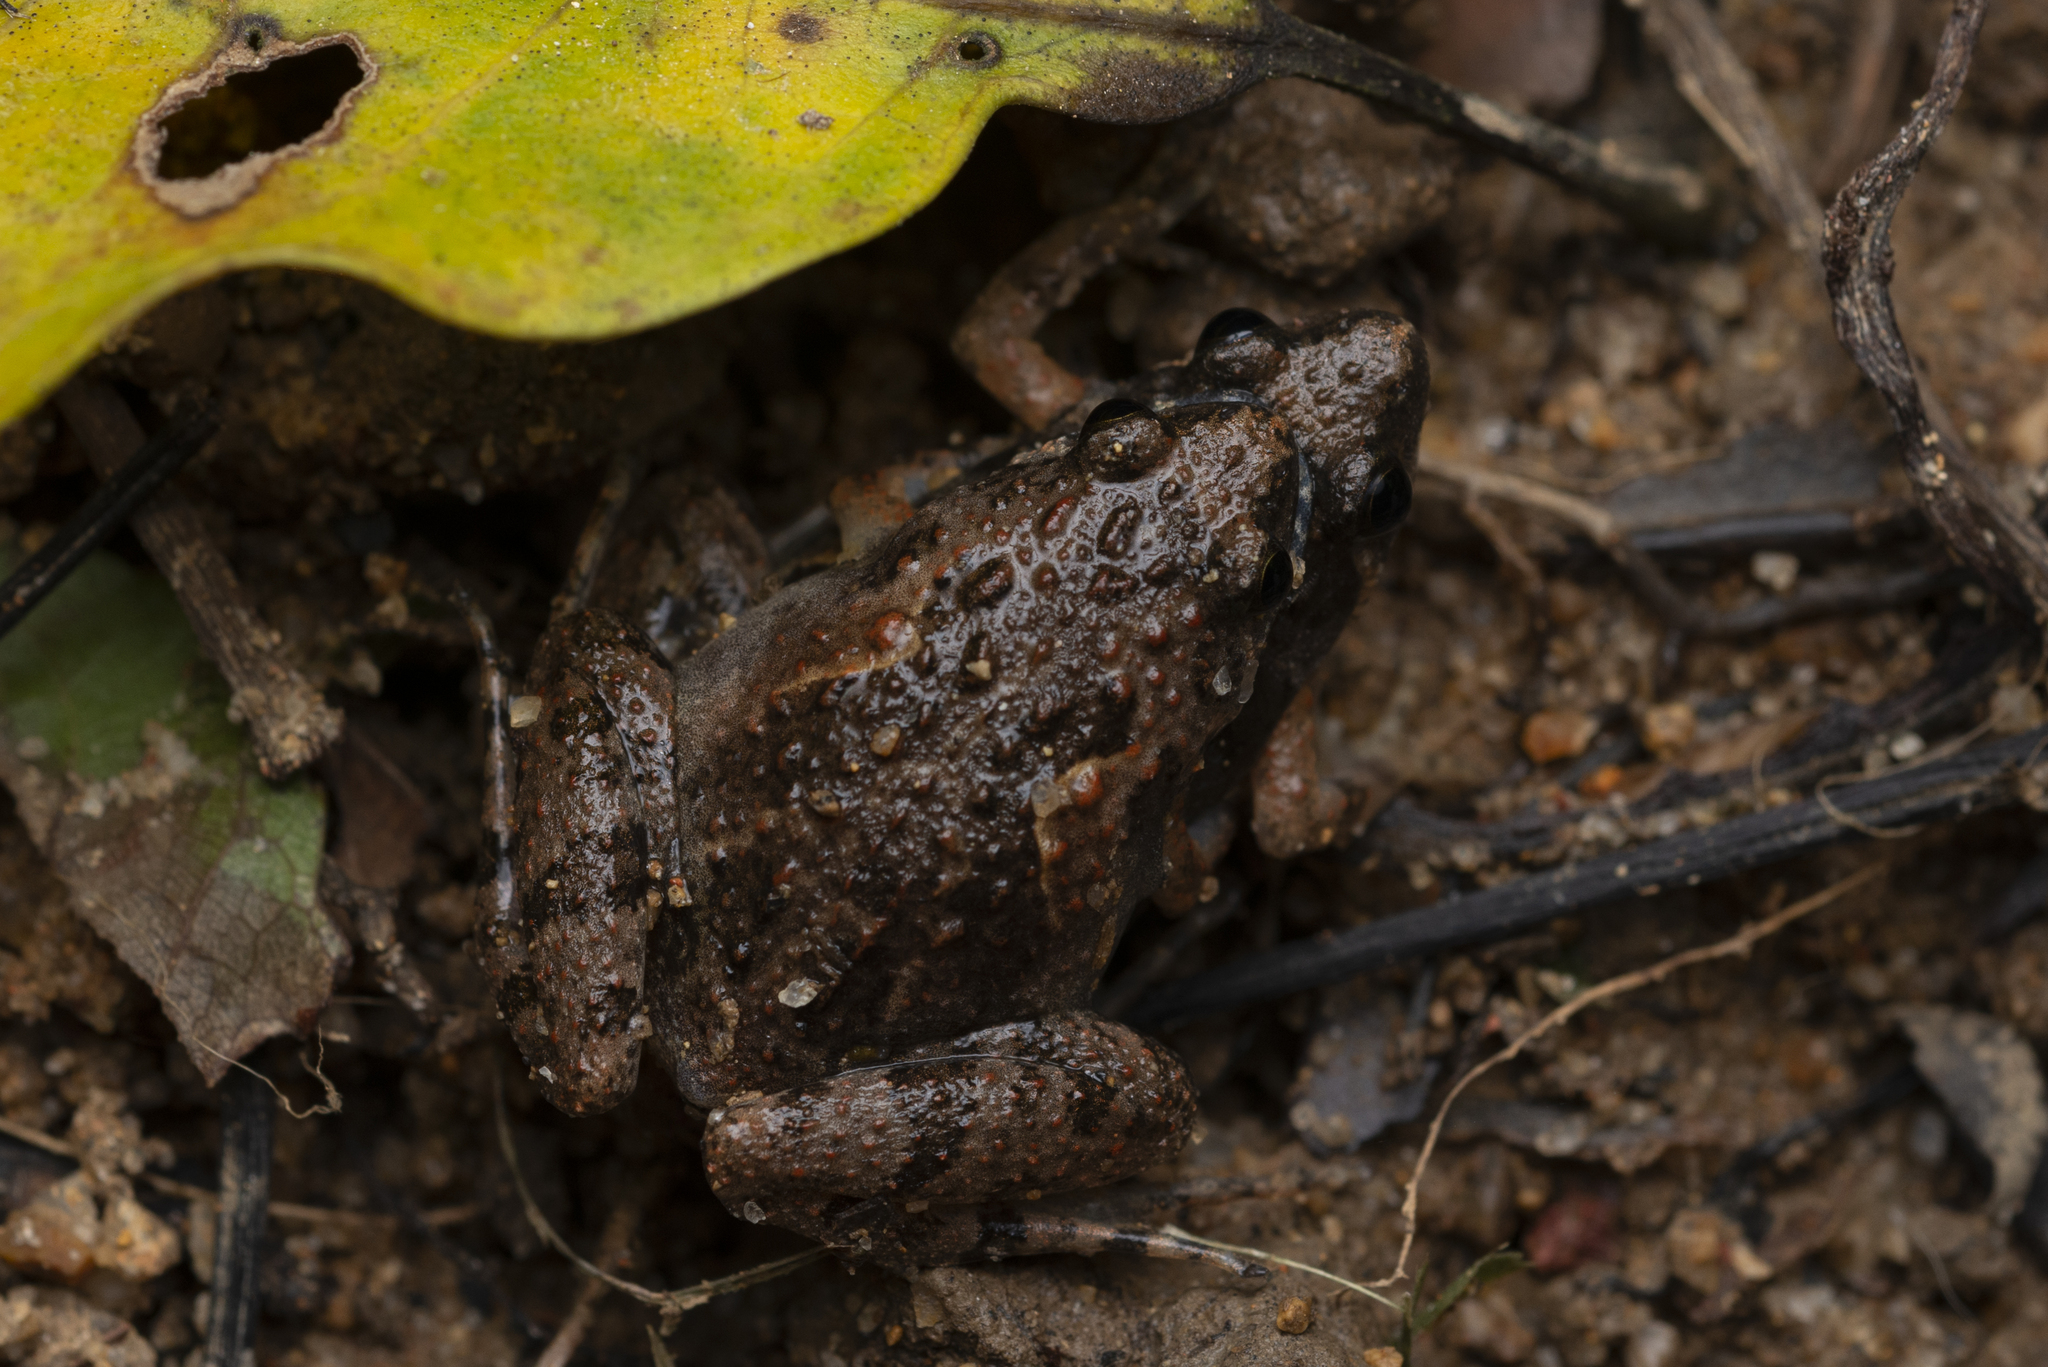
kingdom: Animalia
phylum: Chordata
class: Amphibia
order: Anura
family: Microhylidae
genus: Microhyla
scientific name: Microhyla butleri
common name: Butler’s rice frog,painted chorus frog,tubercled pygmy frog
